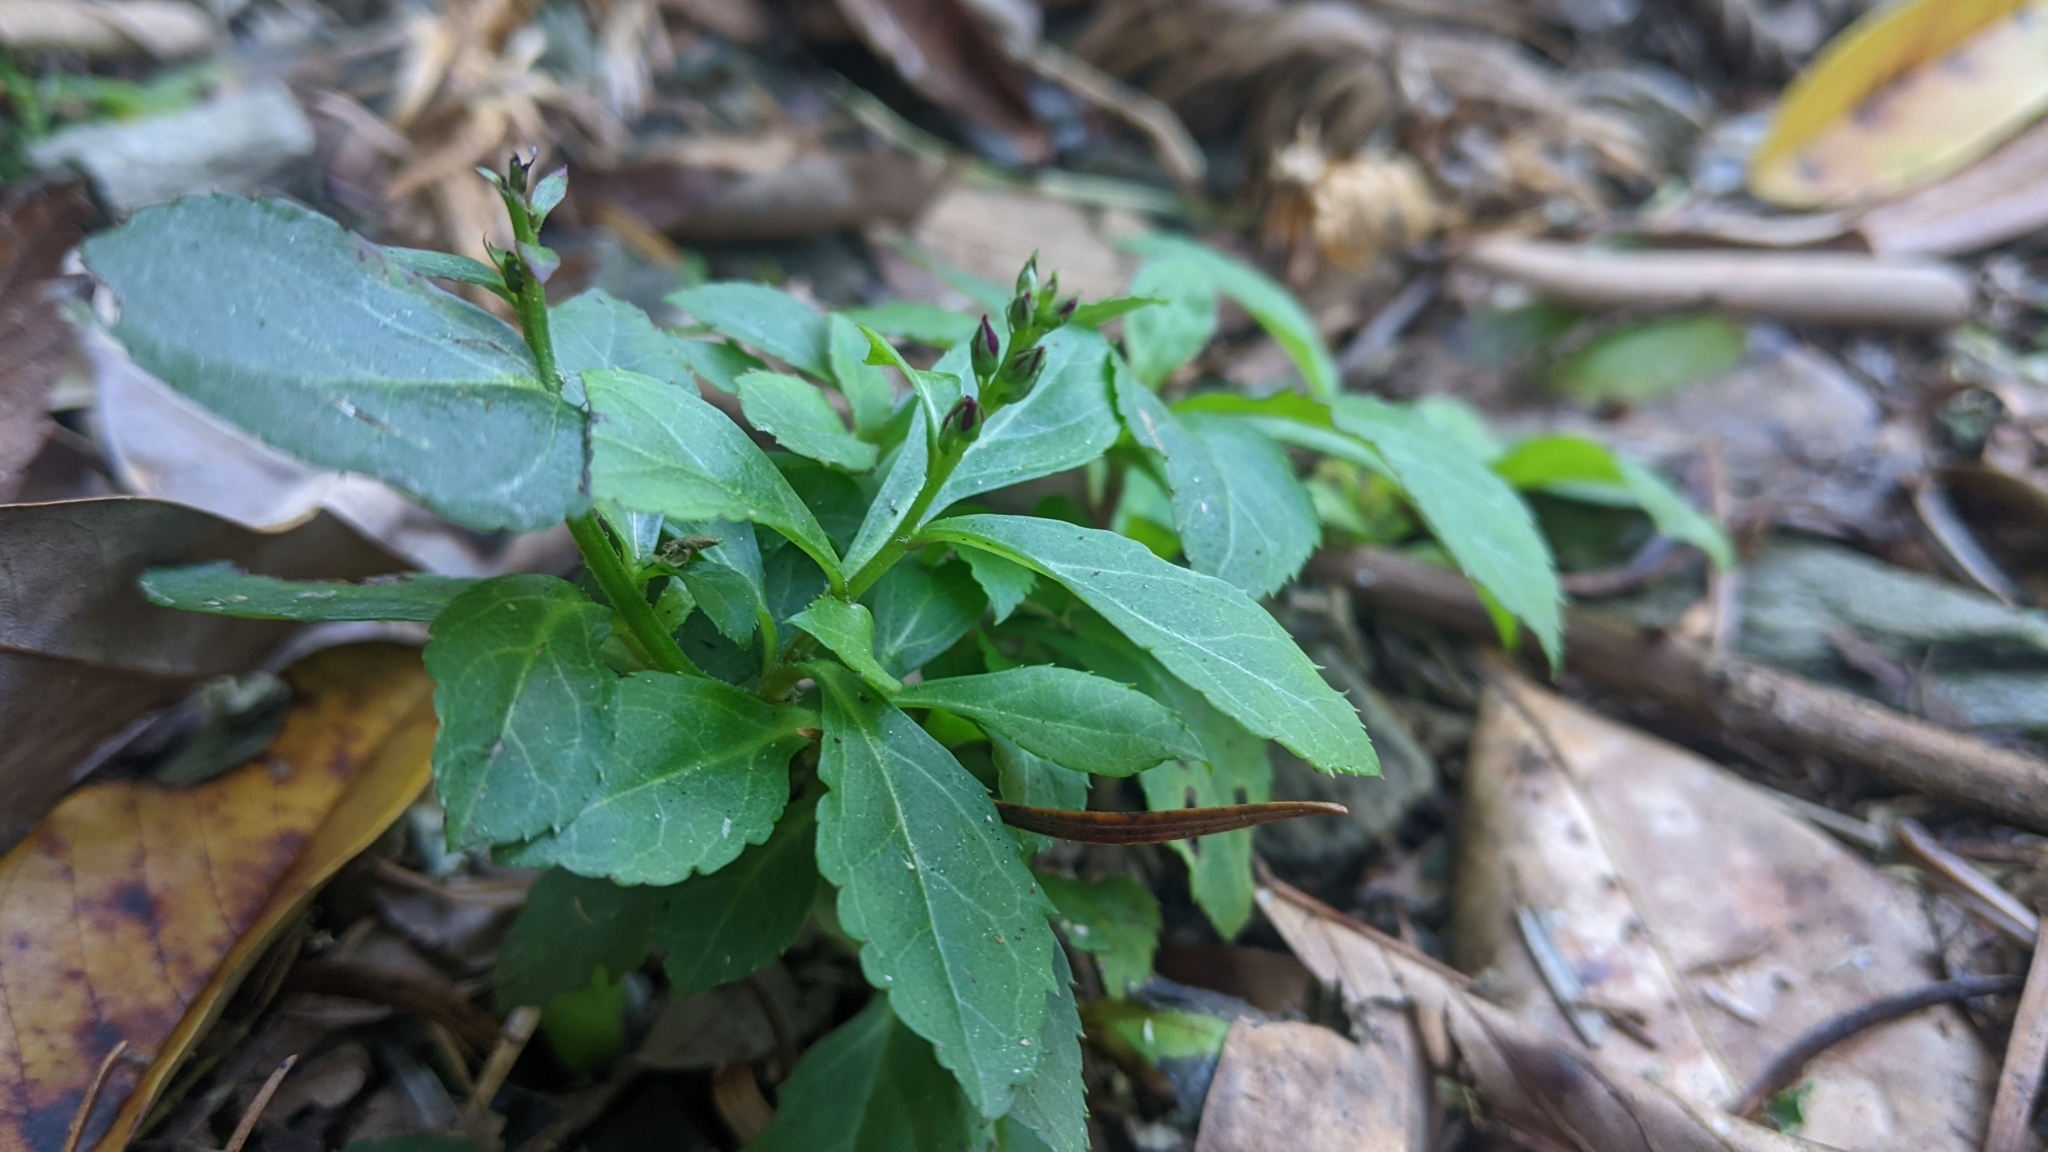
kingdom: Plantae
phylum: Tracheophyta
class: Magnoliopsida
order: Lamiales
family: Plantaginaceae
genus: Veronicastrum
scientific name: Veronicastrum loshanense
